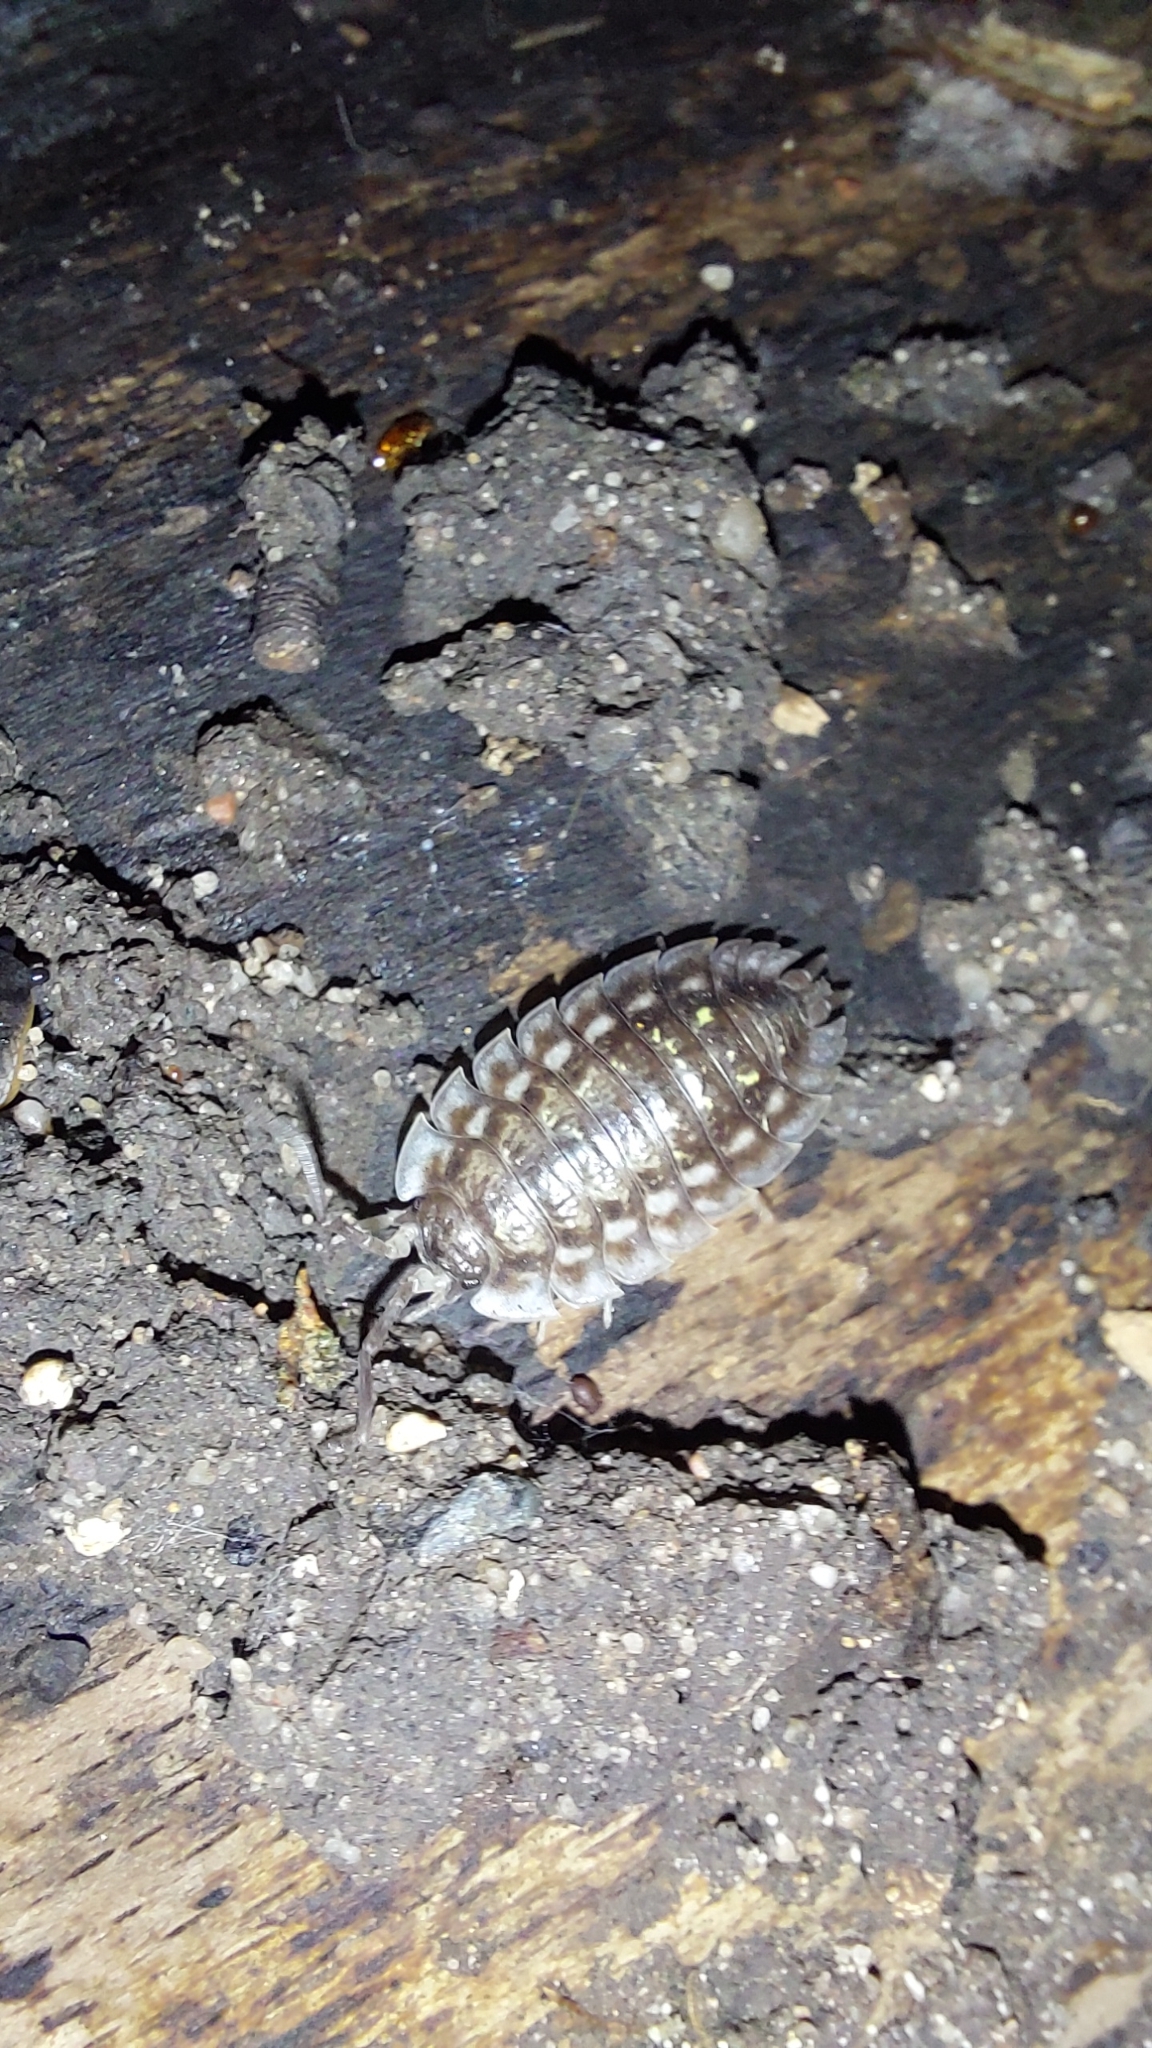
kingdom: Animalia
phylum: Arthropoda
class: Malacostraca
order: Isopoda
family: Oniscidae
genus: Oniscus
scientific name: Oniscus asellus
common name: Common shiny woodlouse
